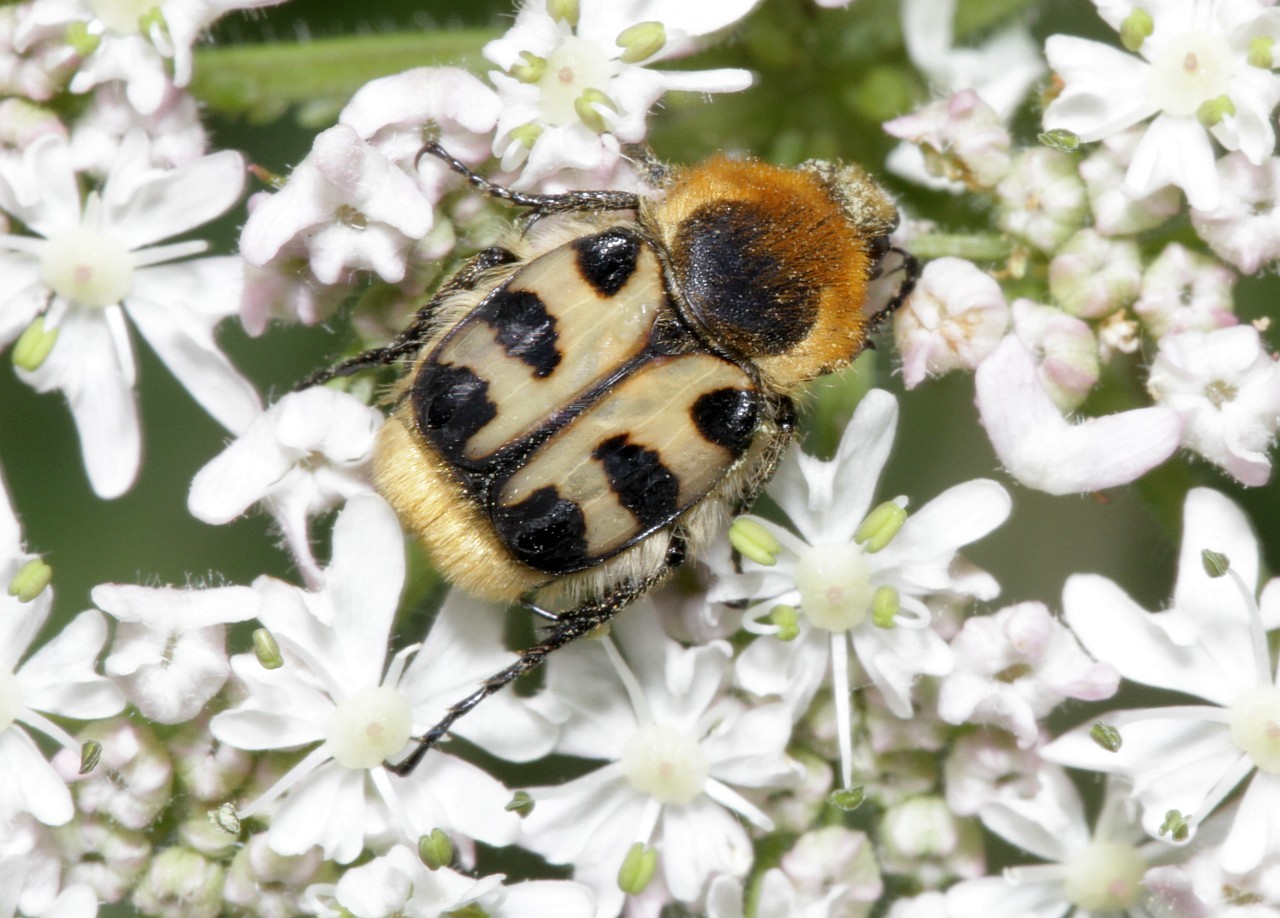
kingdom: Animalia
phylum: Arthropoda
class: Insecta
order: Coleoptera
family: Scarabaeidae
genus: Trichius
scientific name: Trichius gallicus
